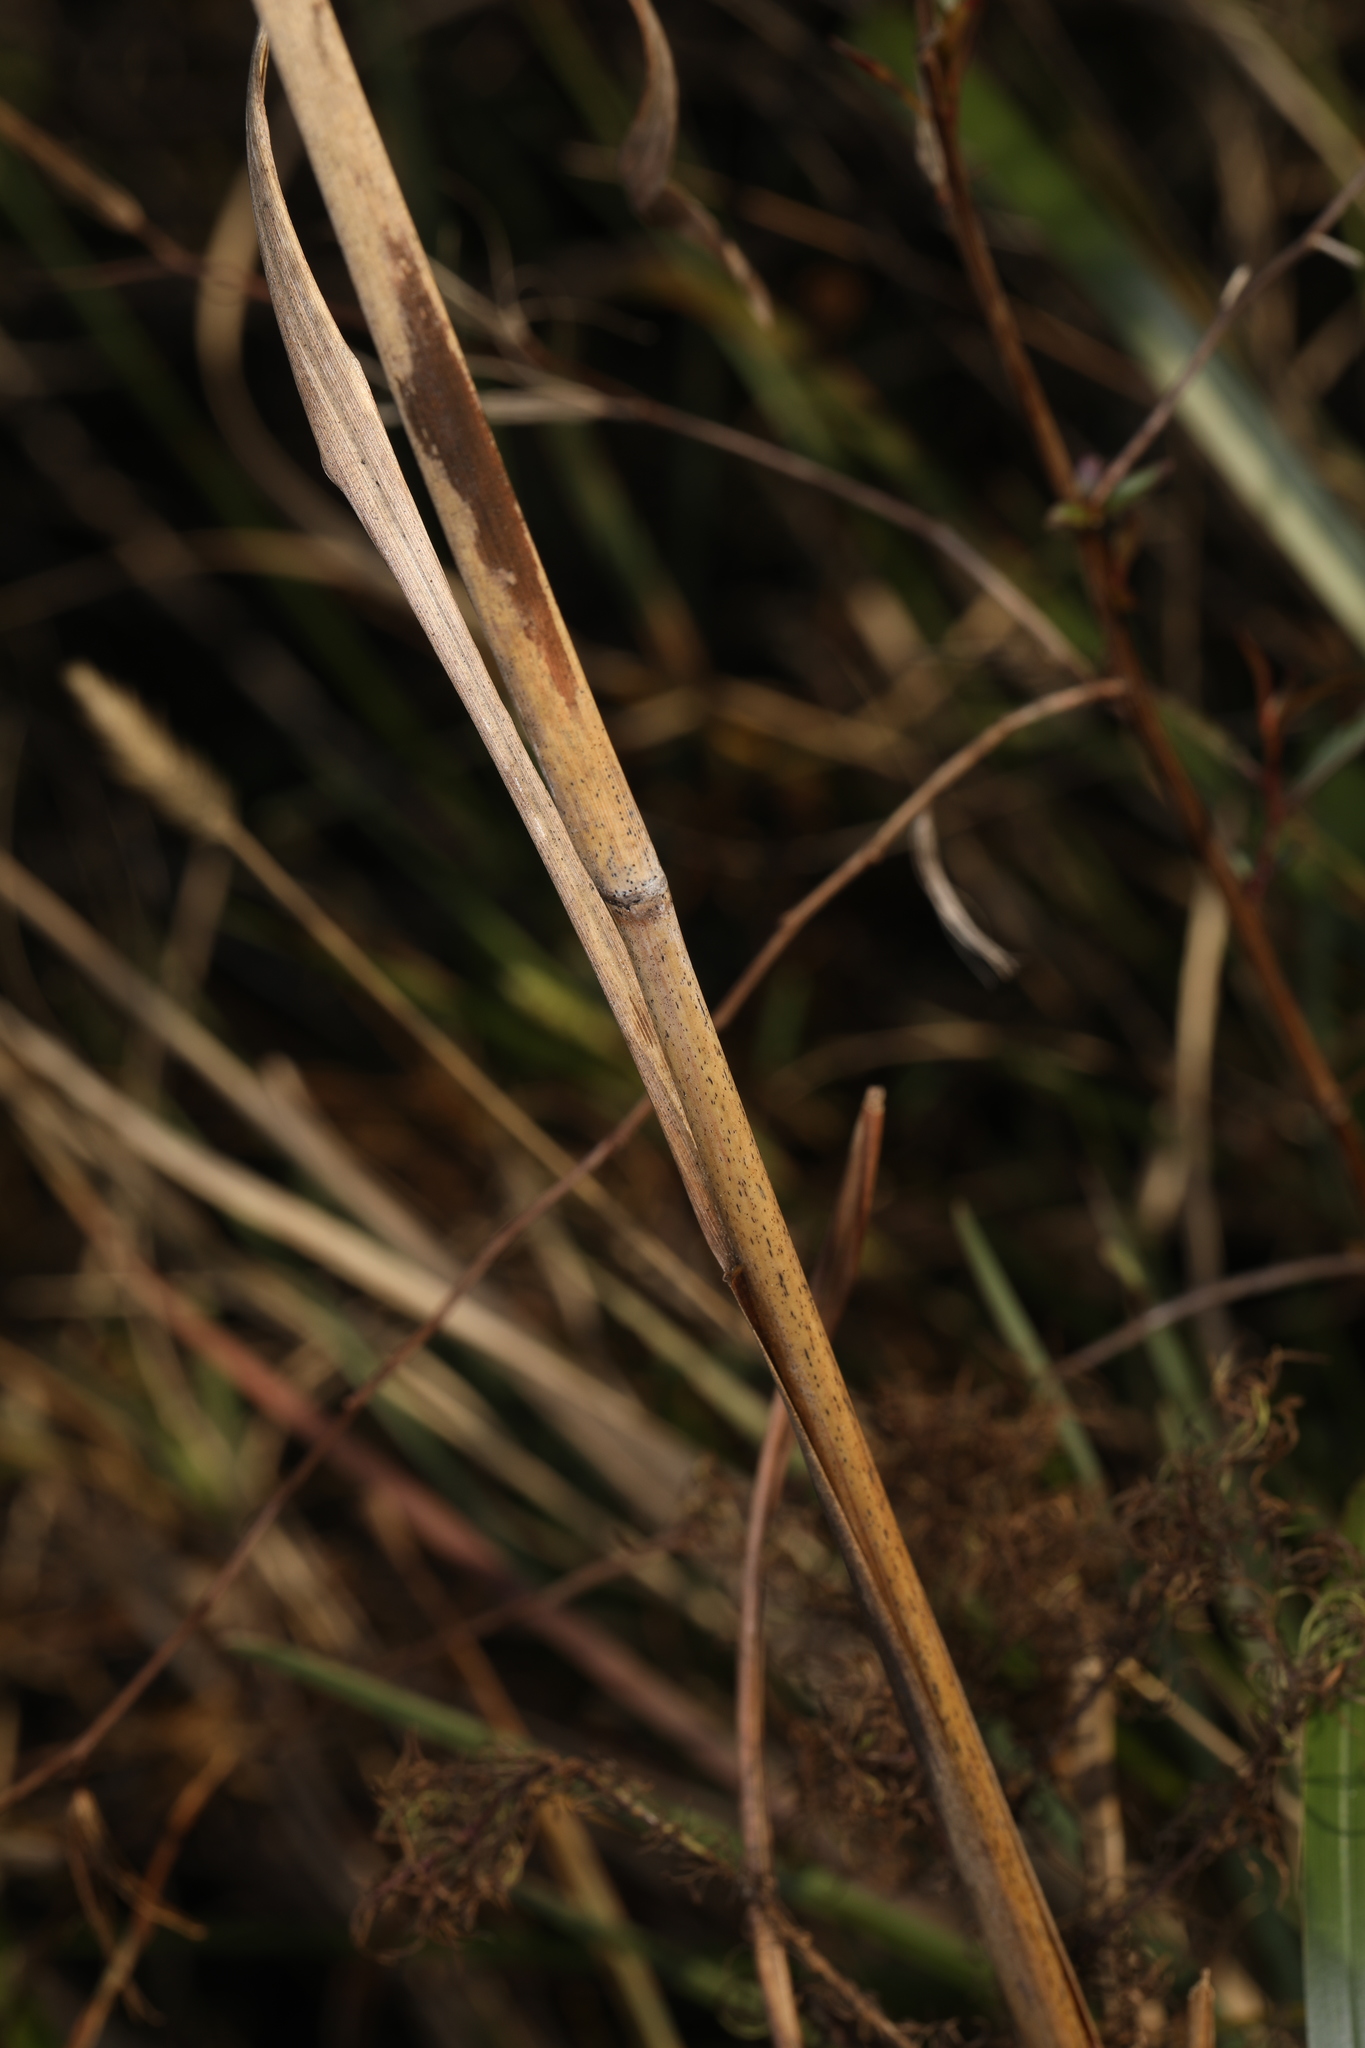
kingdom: Plantae
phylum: Tracheophyta
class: Liliopsida
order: Poales
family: Poaceae
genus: Andropogon
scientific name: Andropogon tenuispatheus
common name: Bushy bluestem
